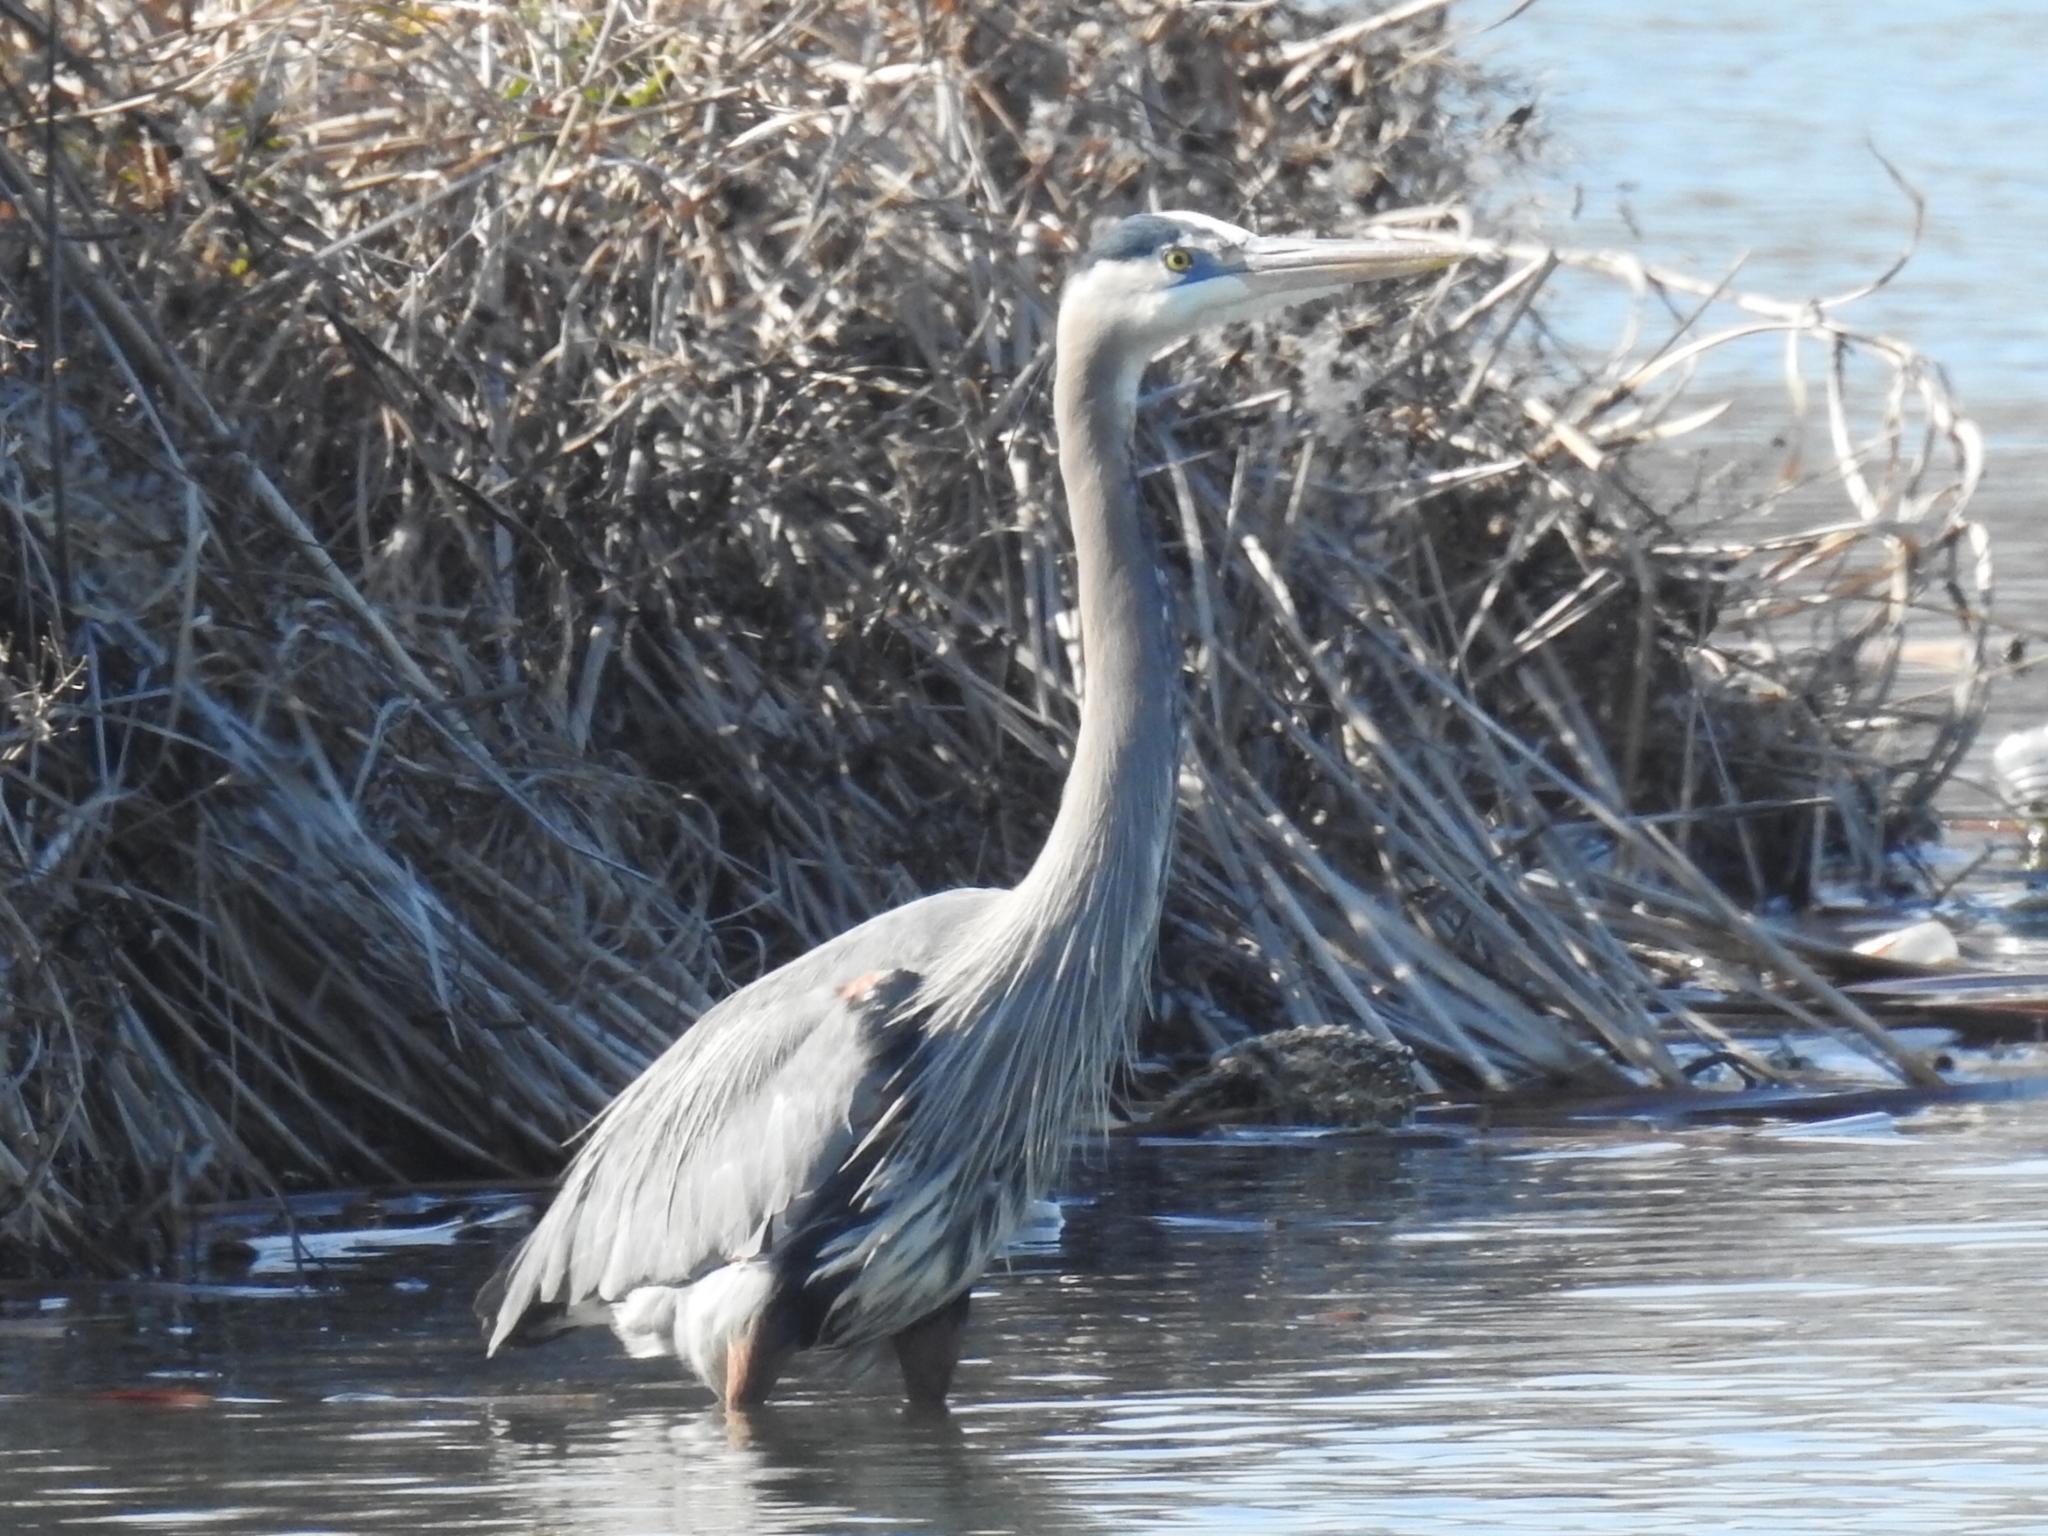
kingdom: Animalia
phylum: Chordata
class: Aves
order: Pelecaniformes
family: Ardeidae
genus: Ardea
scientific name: Ardea herodias
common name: Great blue heron
